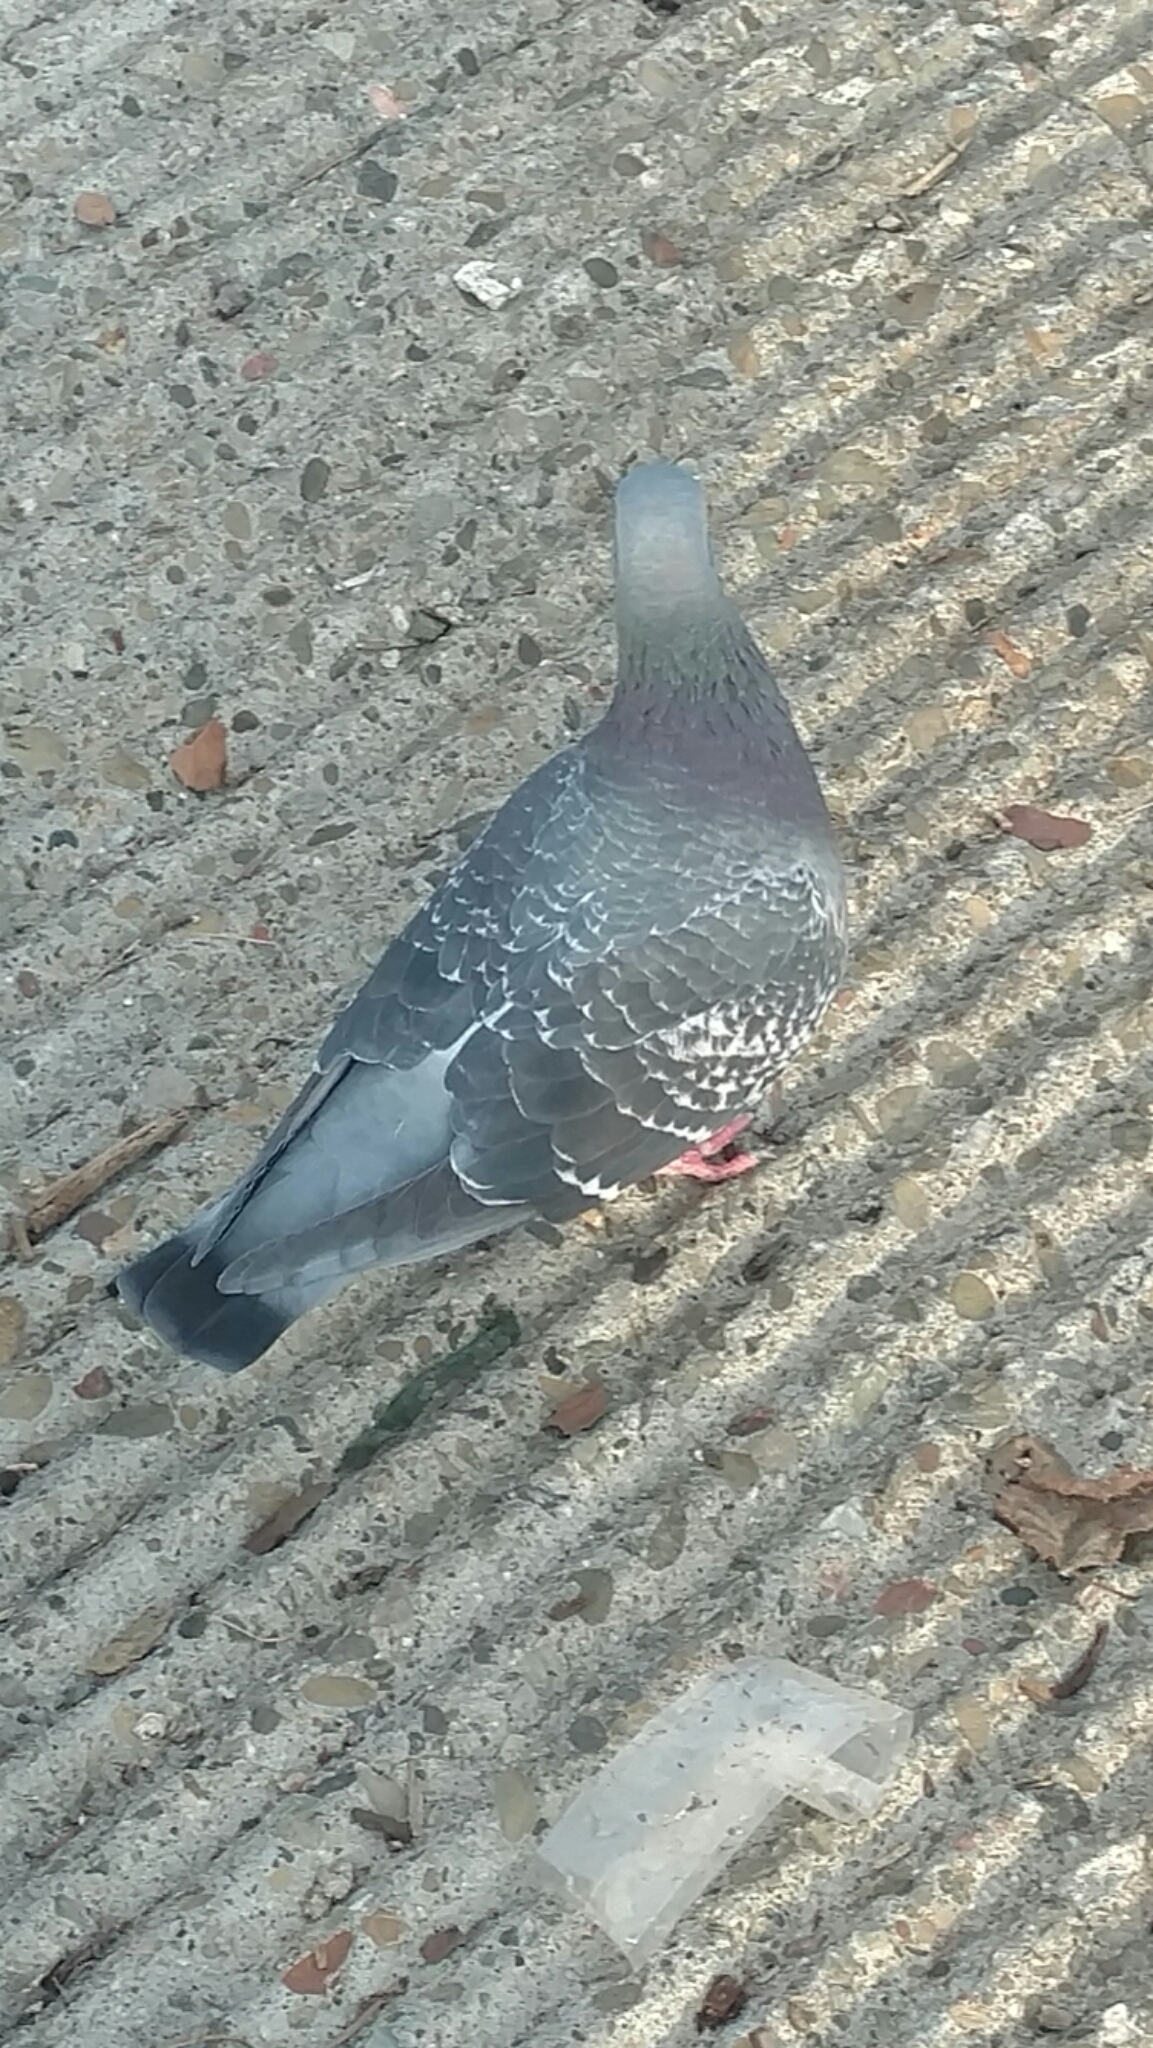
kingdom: Animalia
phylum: Chordata
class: Aves
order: Columbiformes
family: Columbidae
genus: Columba
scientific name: Columba livia
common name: Rock pigeon
